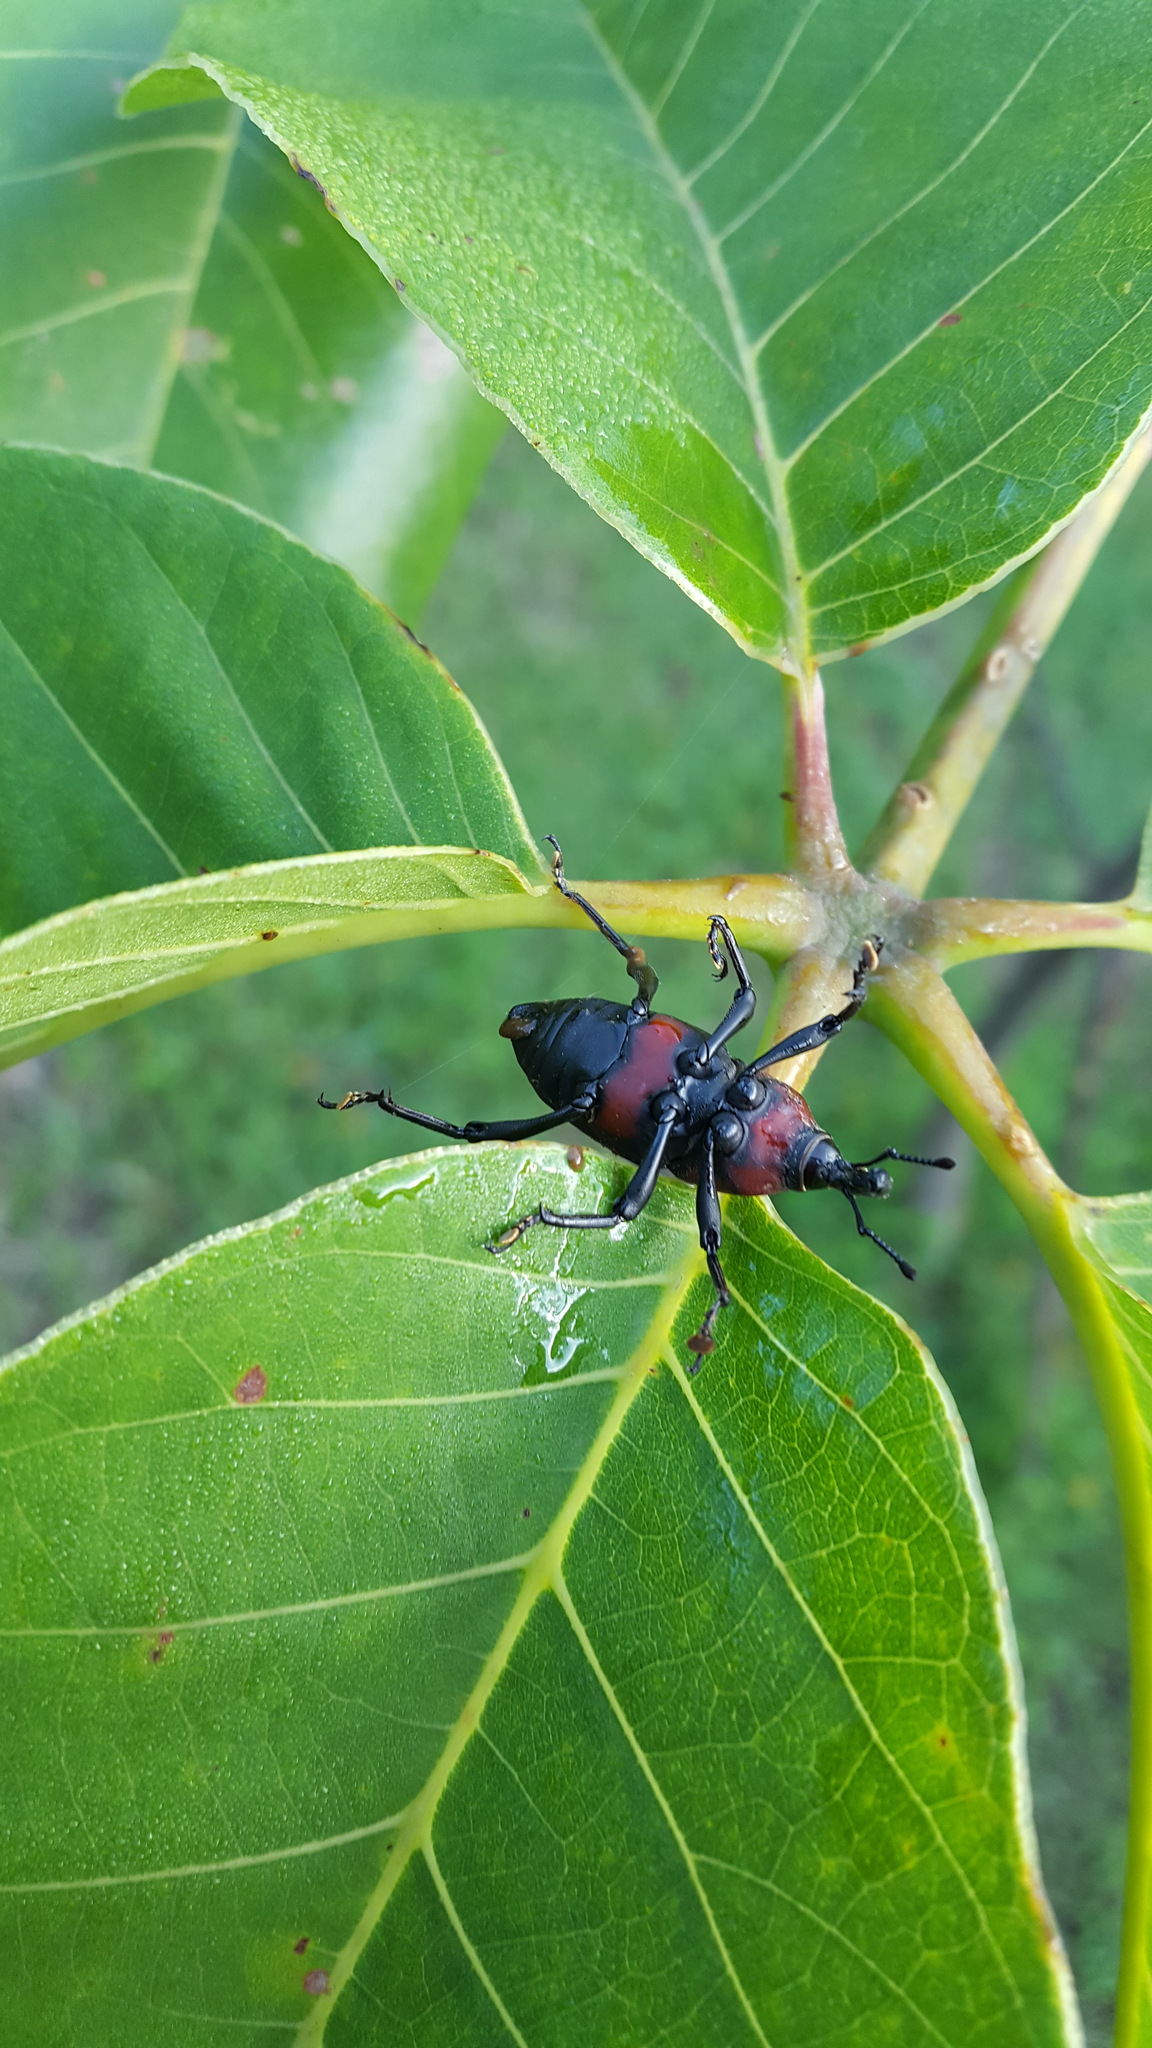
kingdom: Animalia
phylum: Arthropoda
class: Insecta
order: Coleoptera
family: Dryophthoridae
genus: Cactophagus
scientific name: Cactophagus
